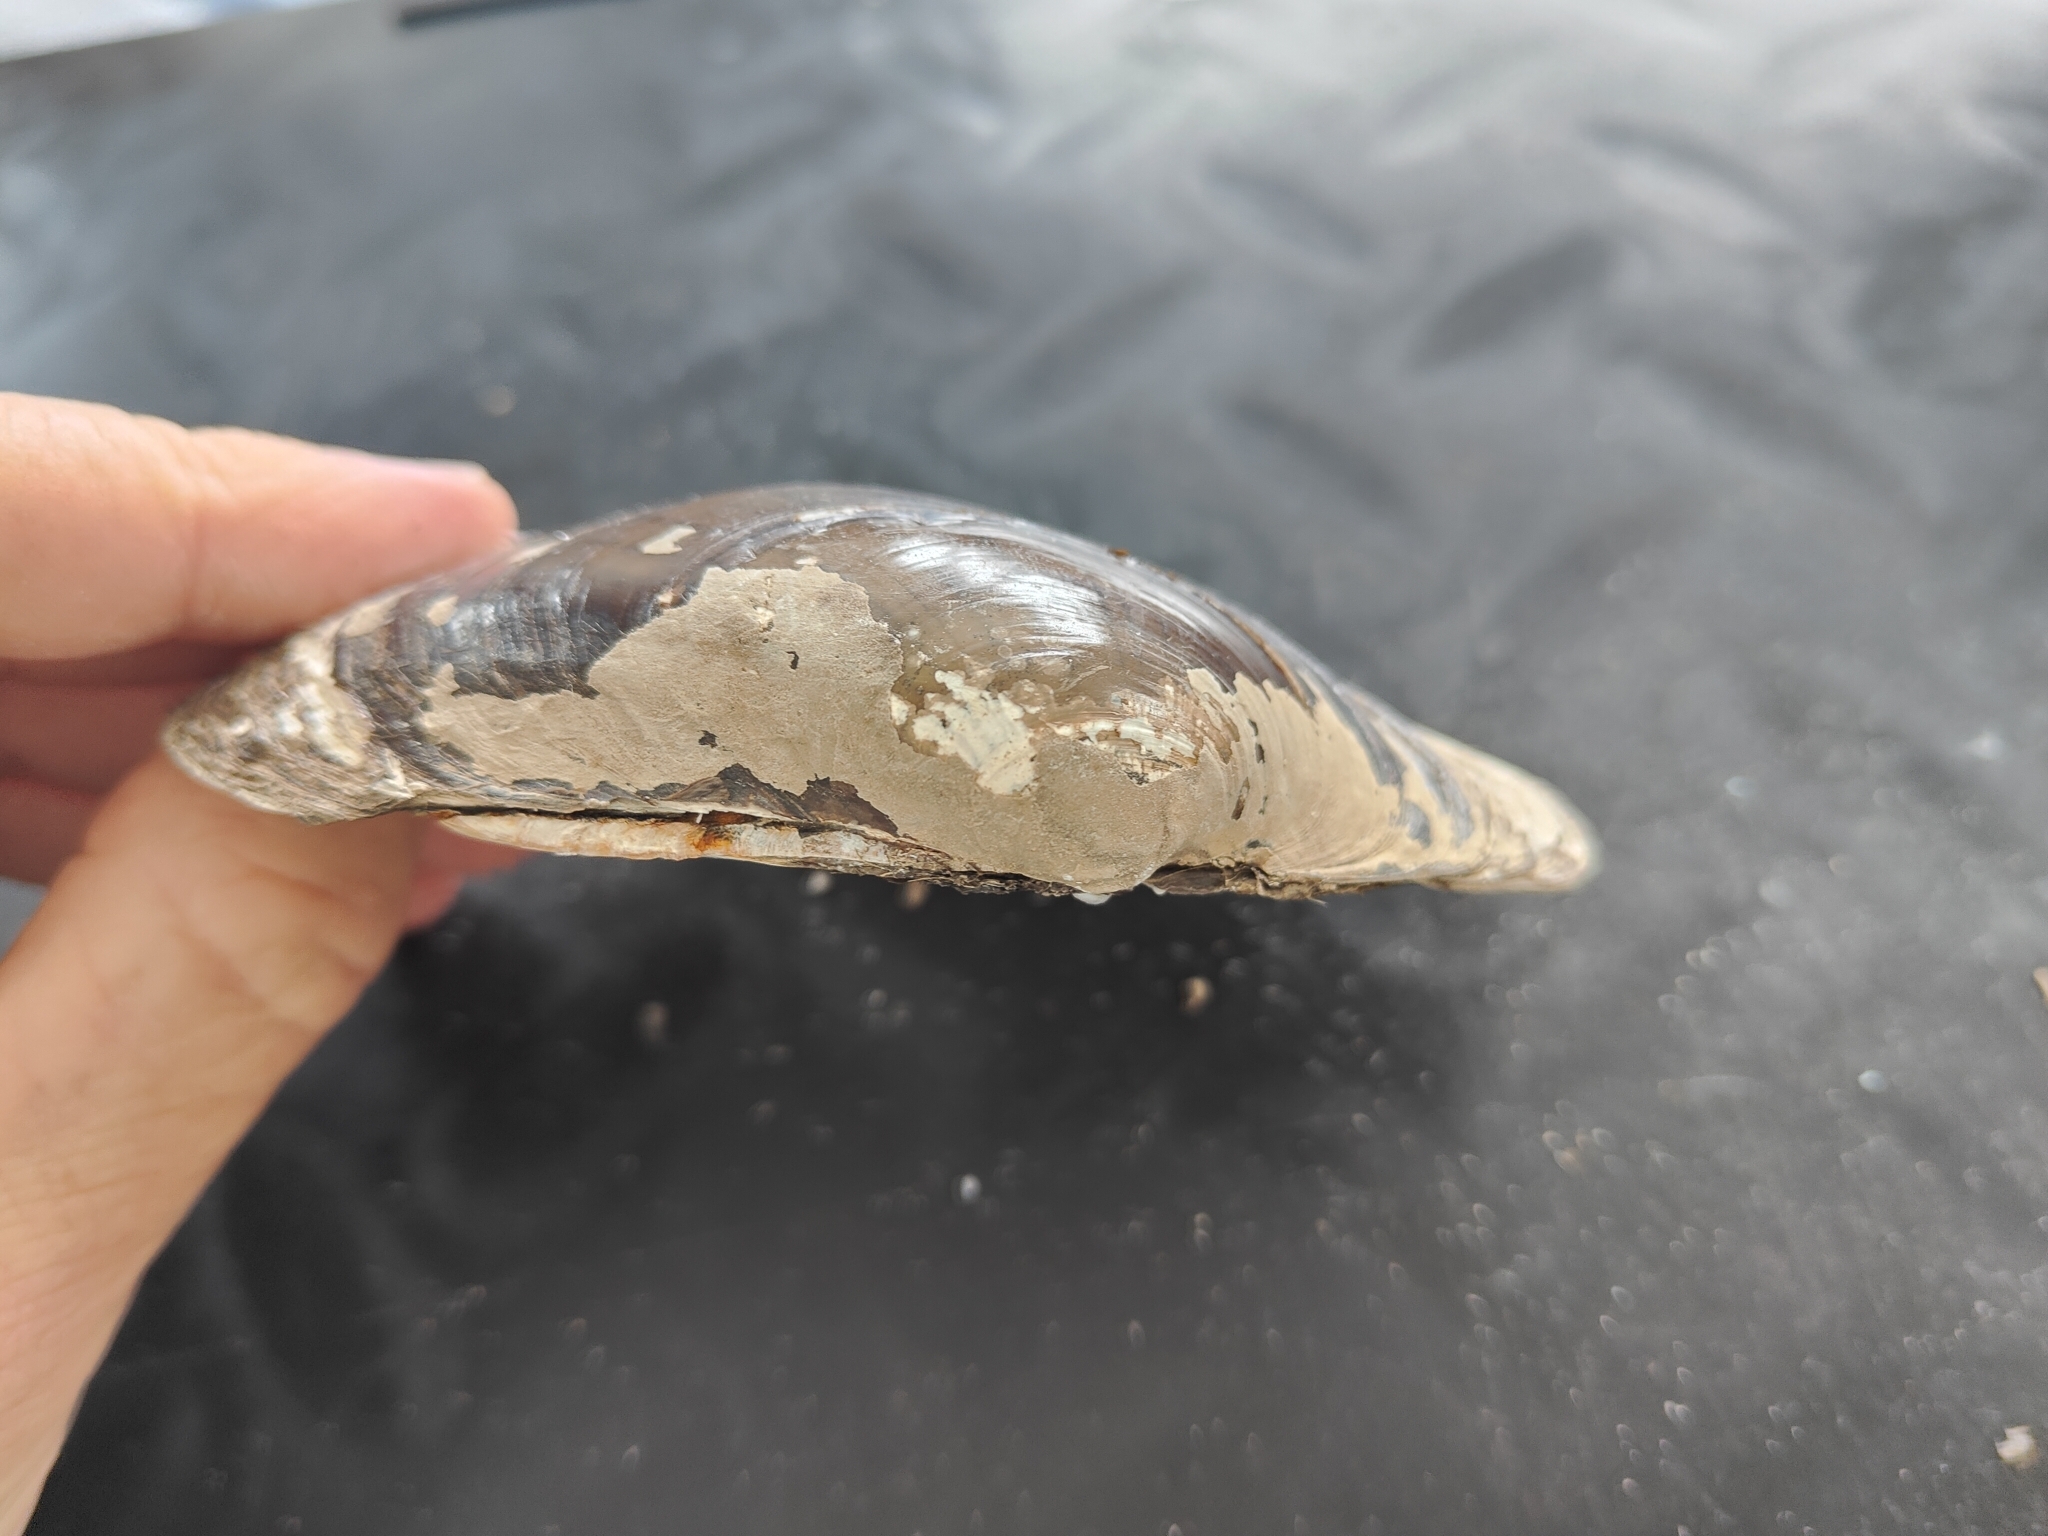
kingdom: Animalia
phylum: Mollusca
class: Bivalvia
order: Unionida
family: Unionidae
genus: Lampsilis
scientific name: Lampsilis cardium
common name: Plain pocketbook
